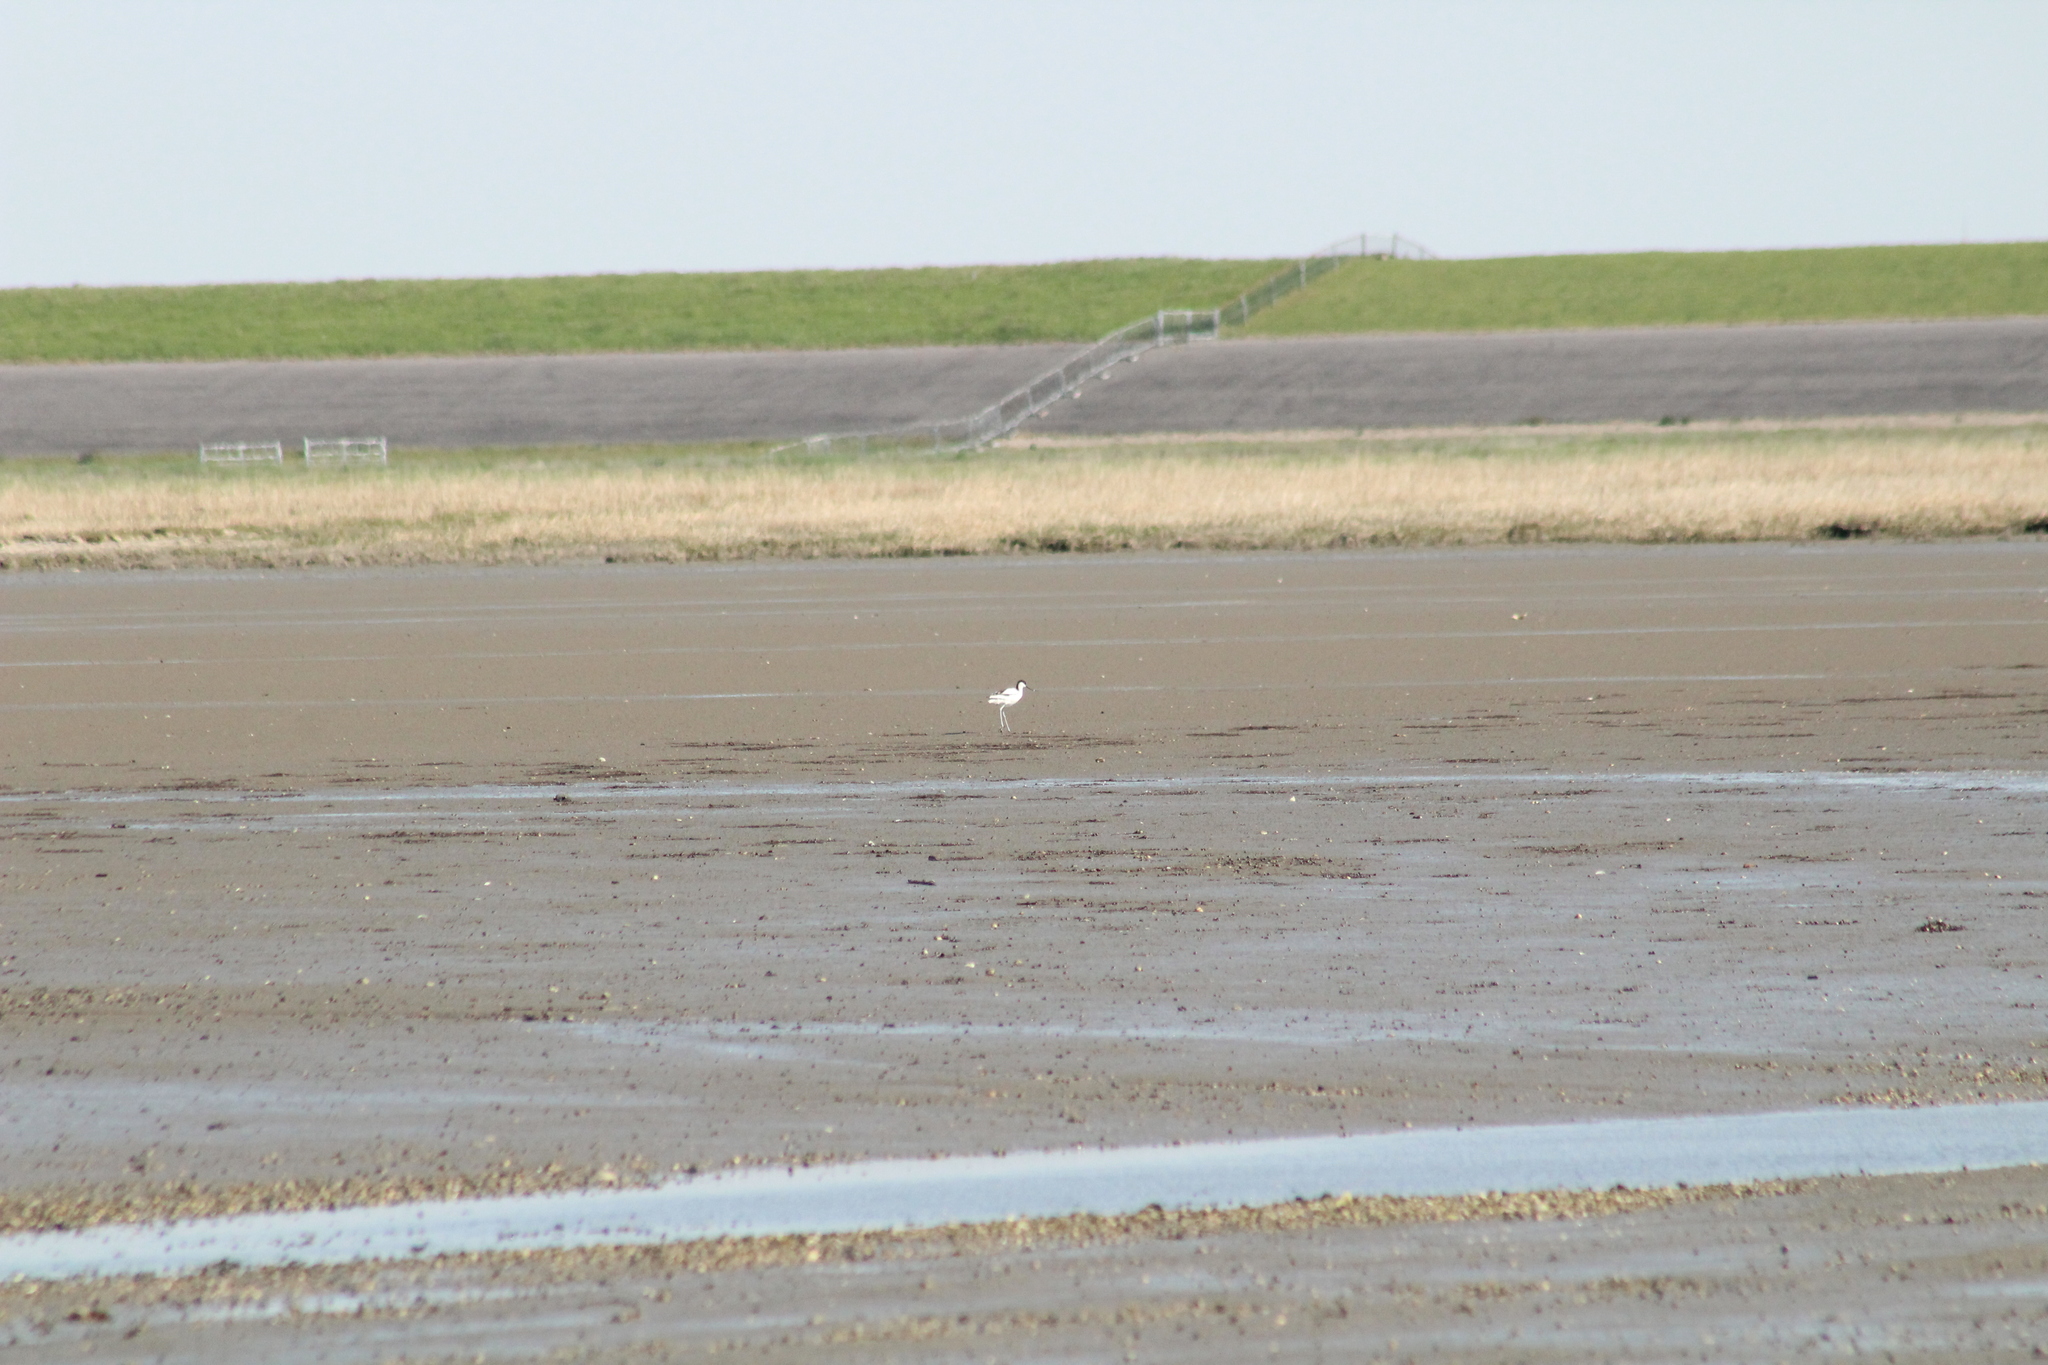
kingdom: Animalia
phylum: Chordata
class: Aves
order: Charadriiformes
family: Recurvirostridae
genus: Recurvirostra
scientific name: Recurvirostra avosetta
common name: Pied avocet
